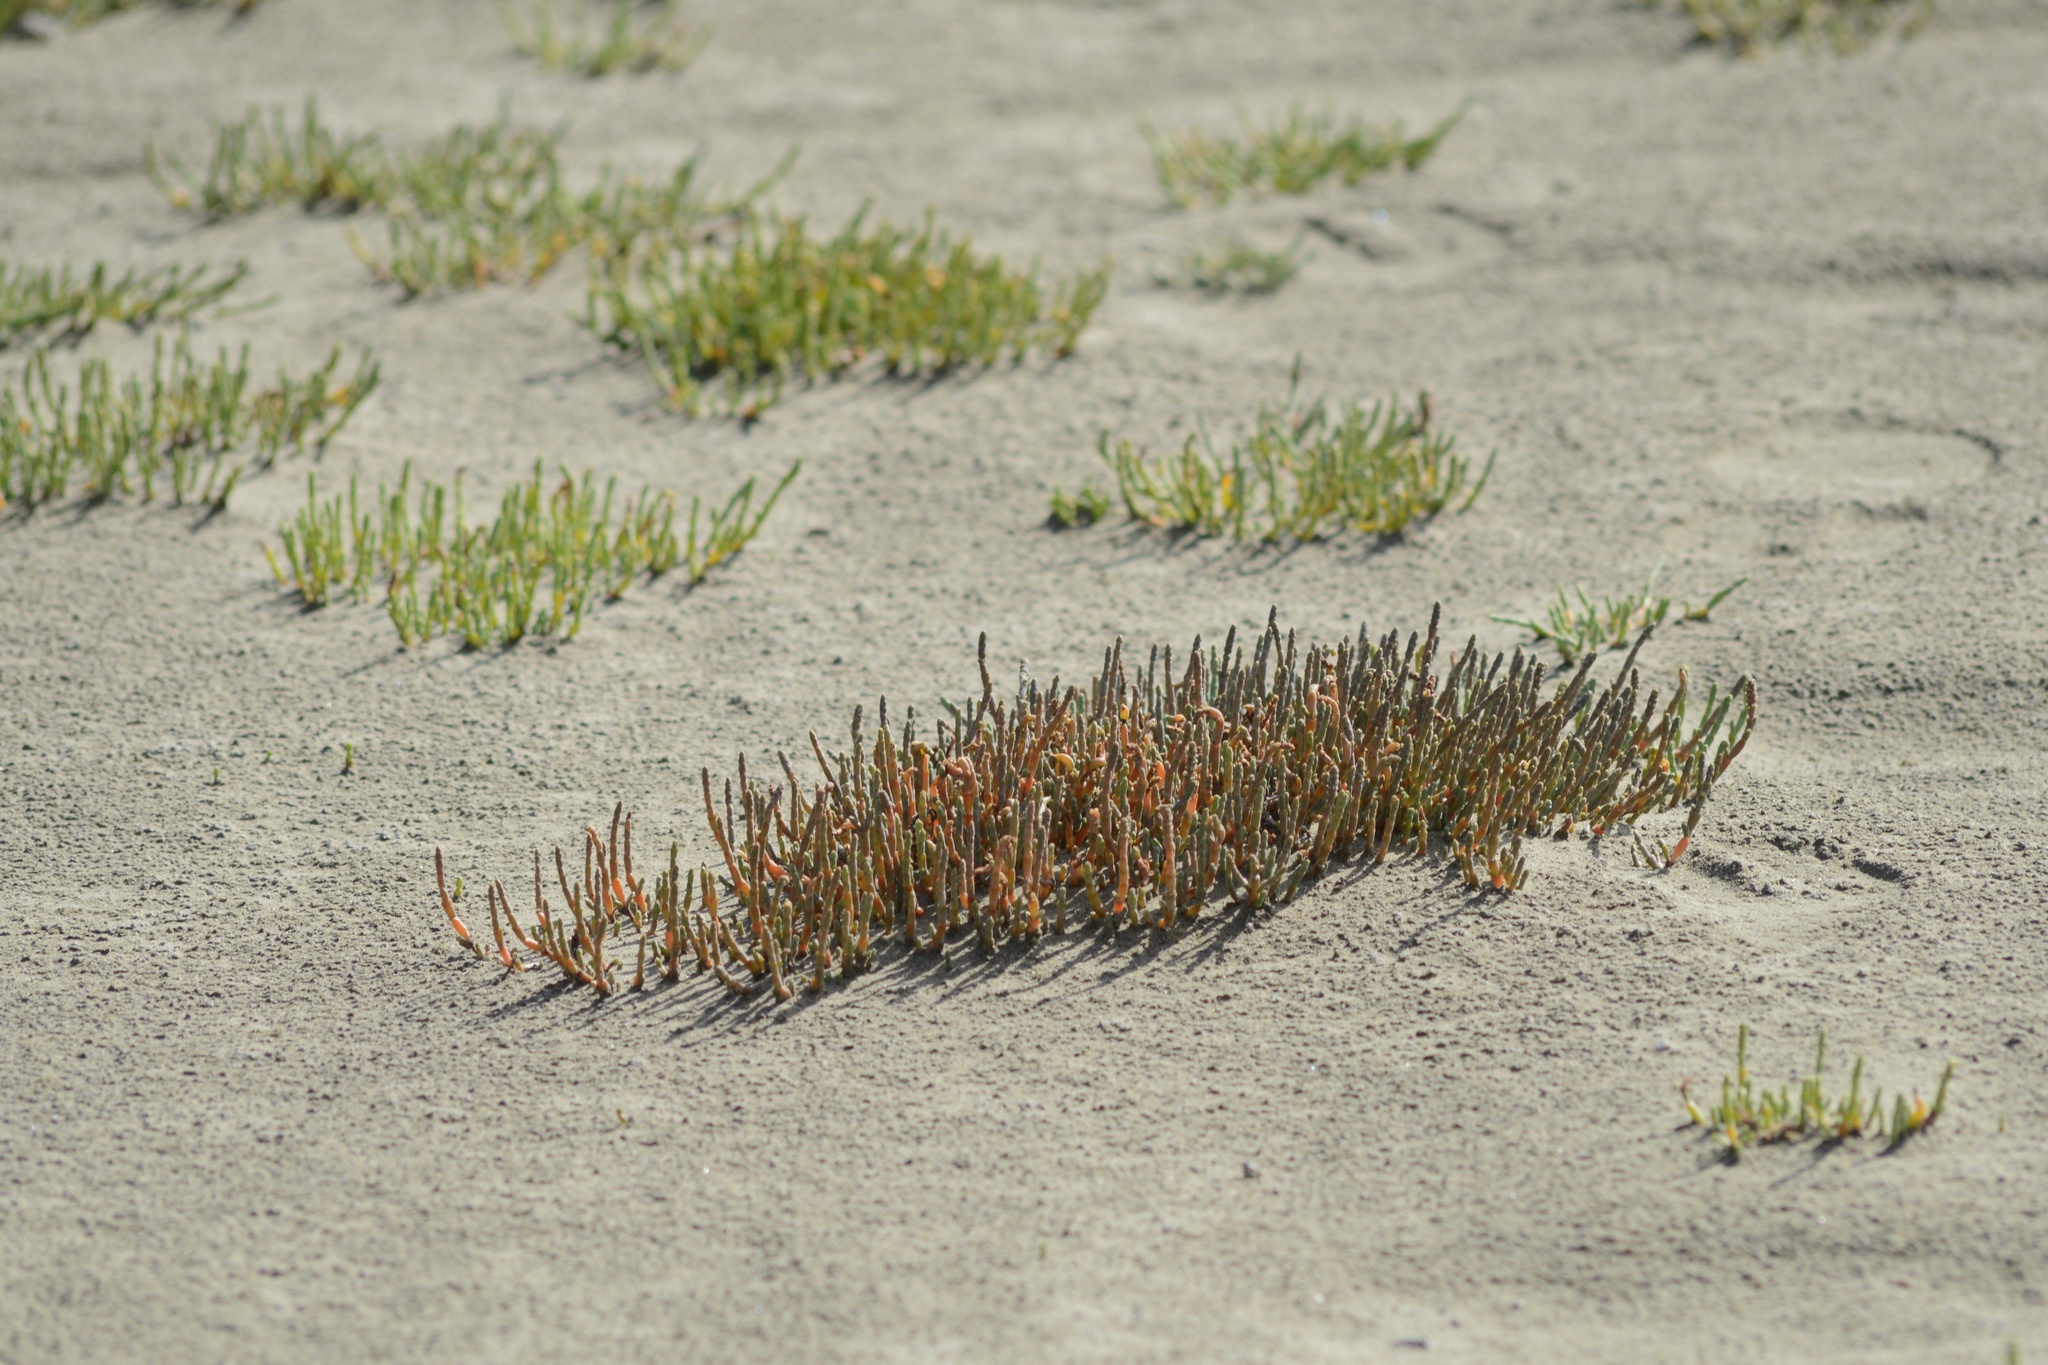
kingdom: Plantae
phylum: Tracheophyta
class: Magnoliopsida
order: Caryophyllales
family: Amaranthaceae
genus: Salicornia
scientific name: Salicornia quinqueflora
